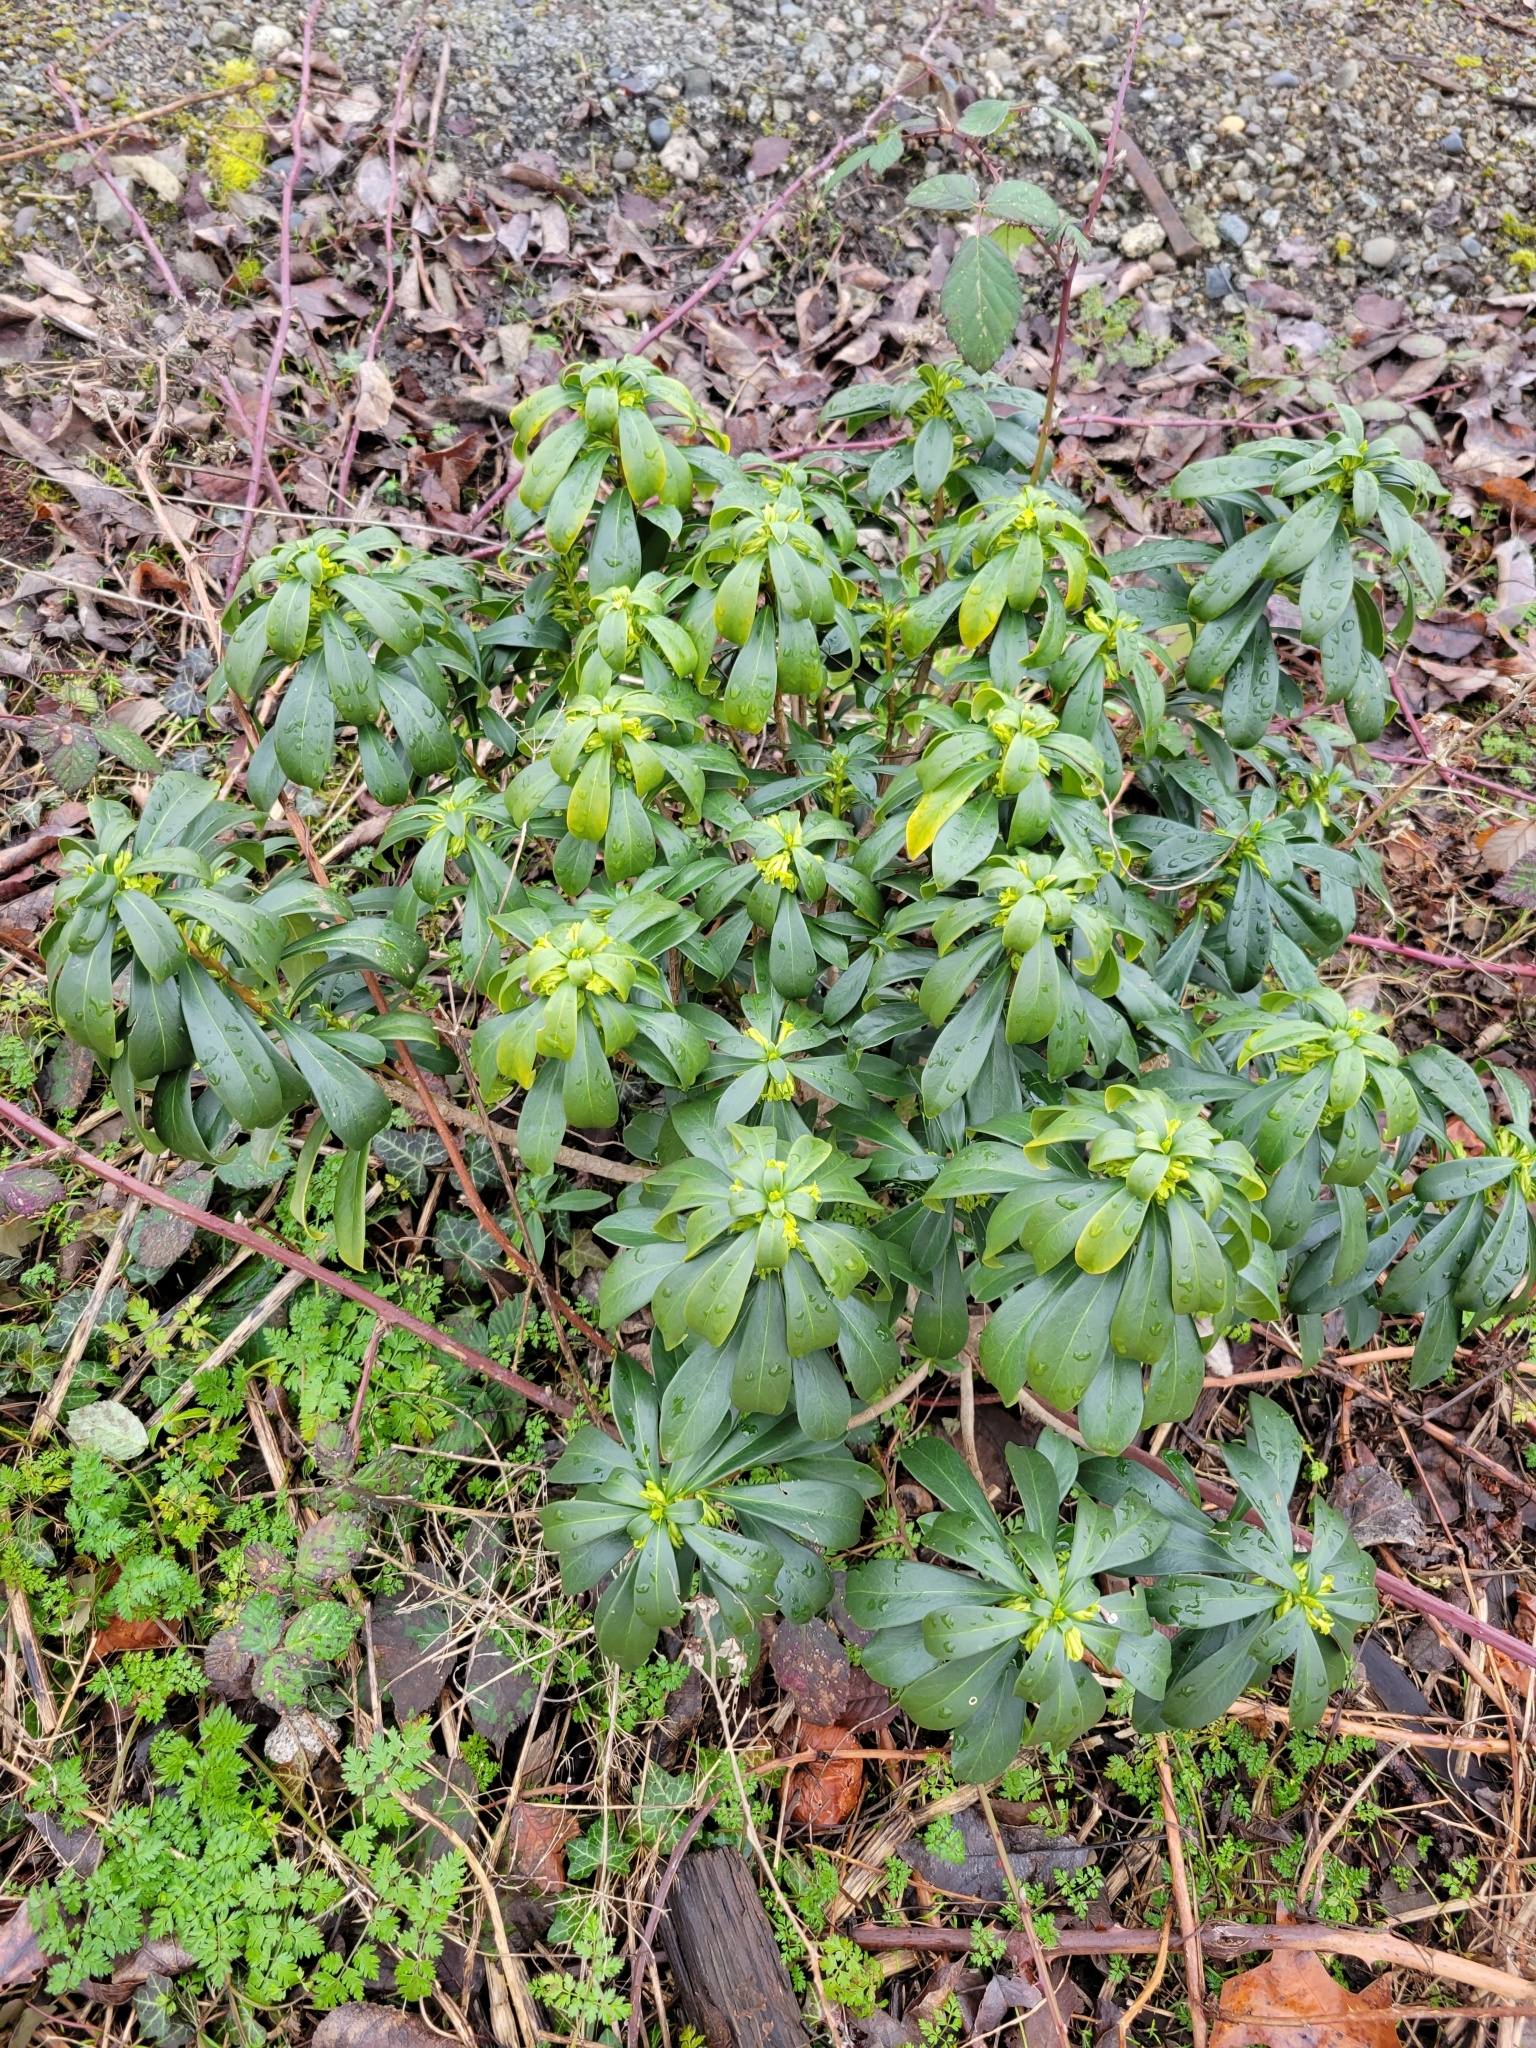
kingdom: Plantae
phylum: Tracheophyta
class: Magnoliopsida
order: Malvales
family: Thymelaeaceae
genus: Daphne
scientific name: Daphne laureola
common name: Spurge-laurel
